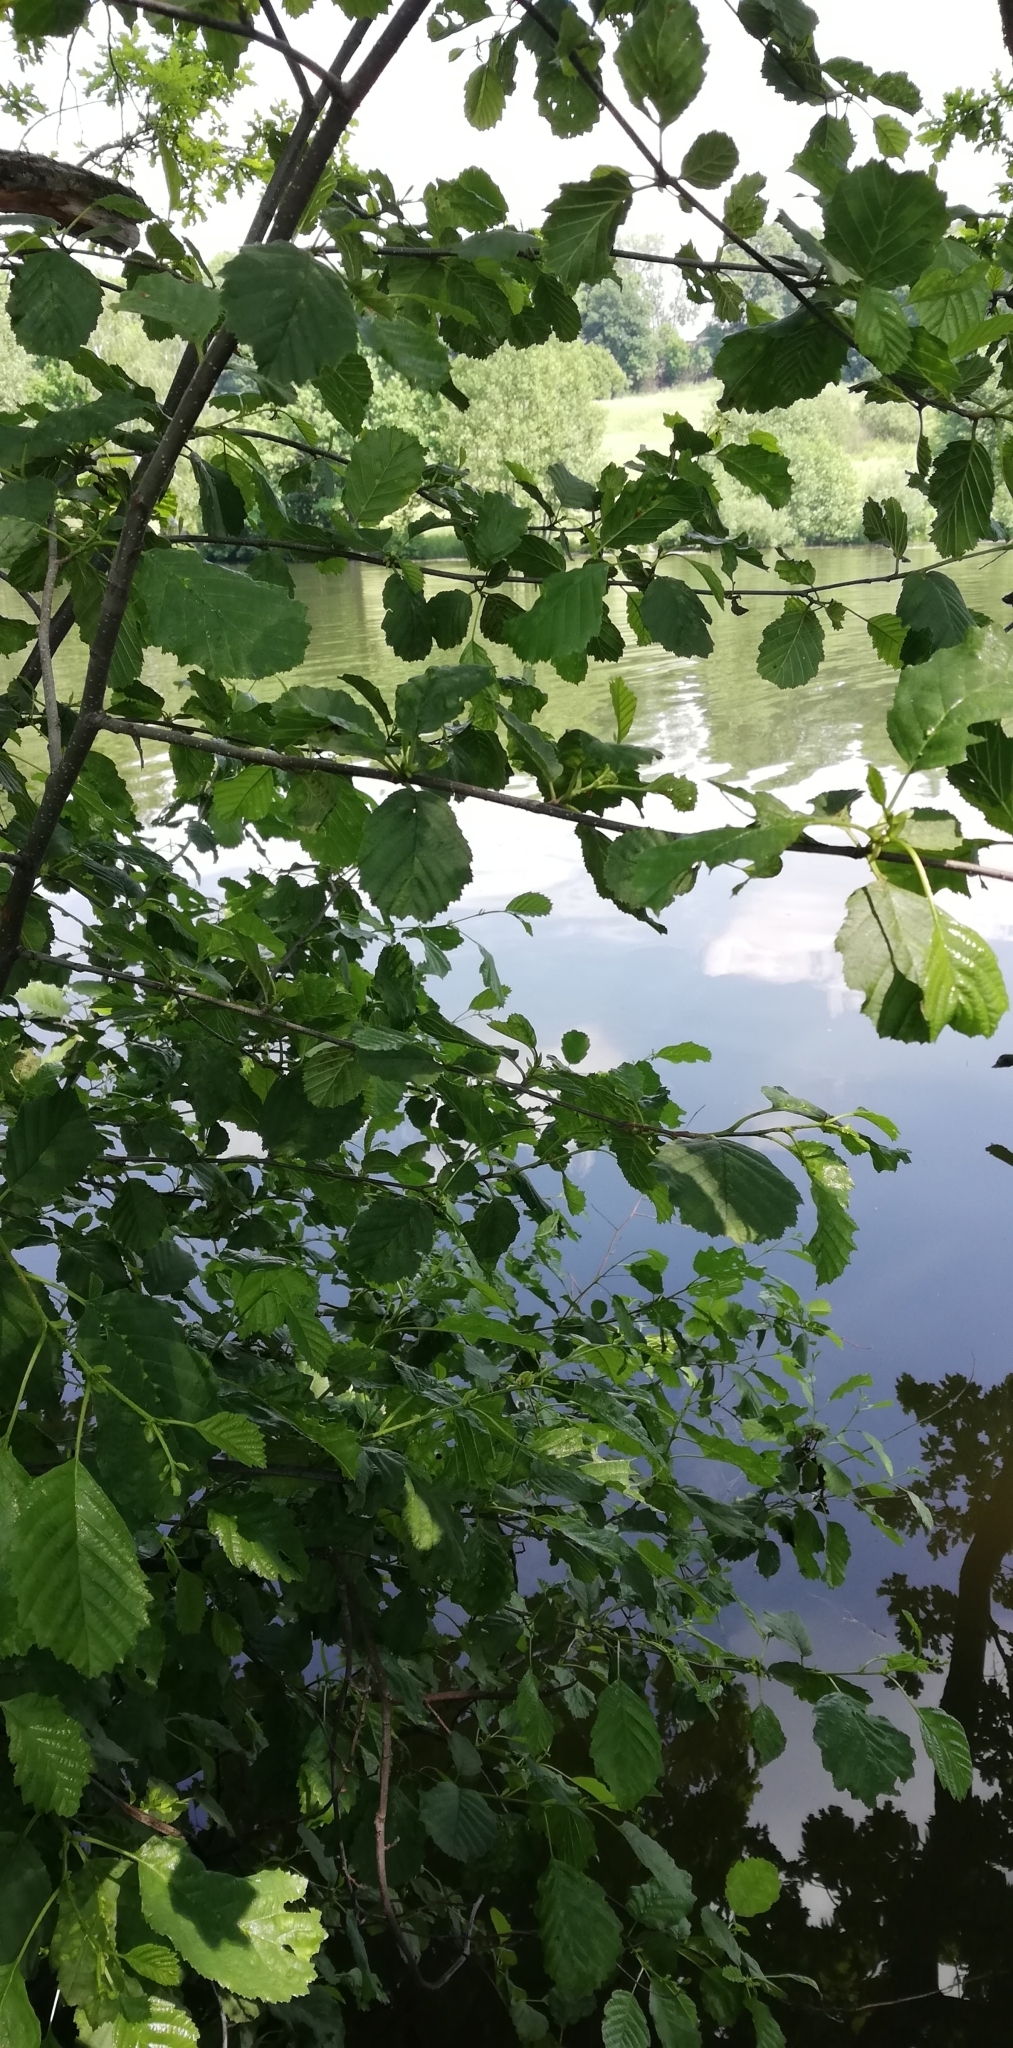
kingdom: Plantae
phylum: Tracheophyta
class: Magnoliopsida
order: Fagales
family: Betulaceae
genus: Alnus
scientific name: Alnus glutinosa
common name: Black alder
